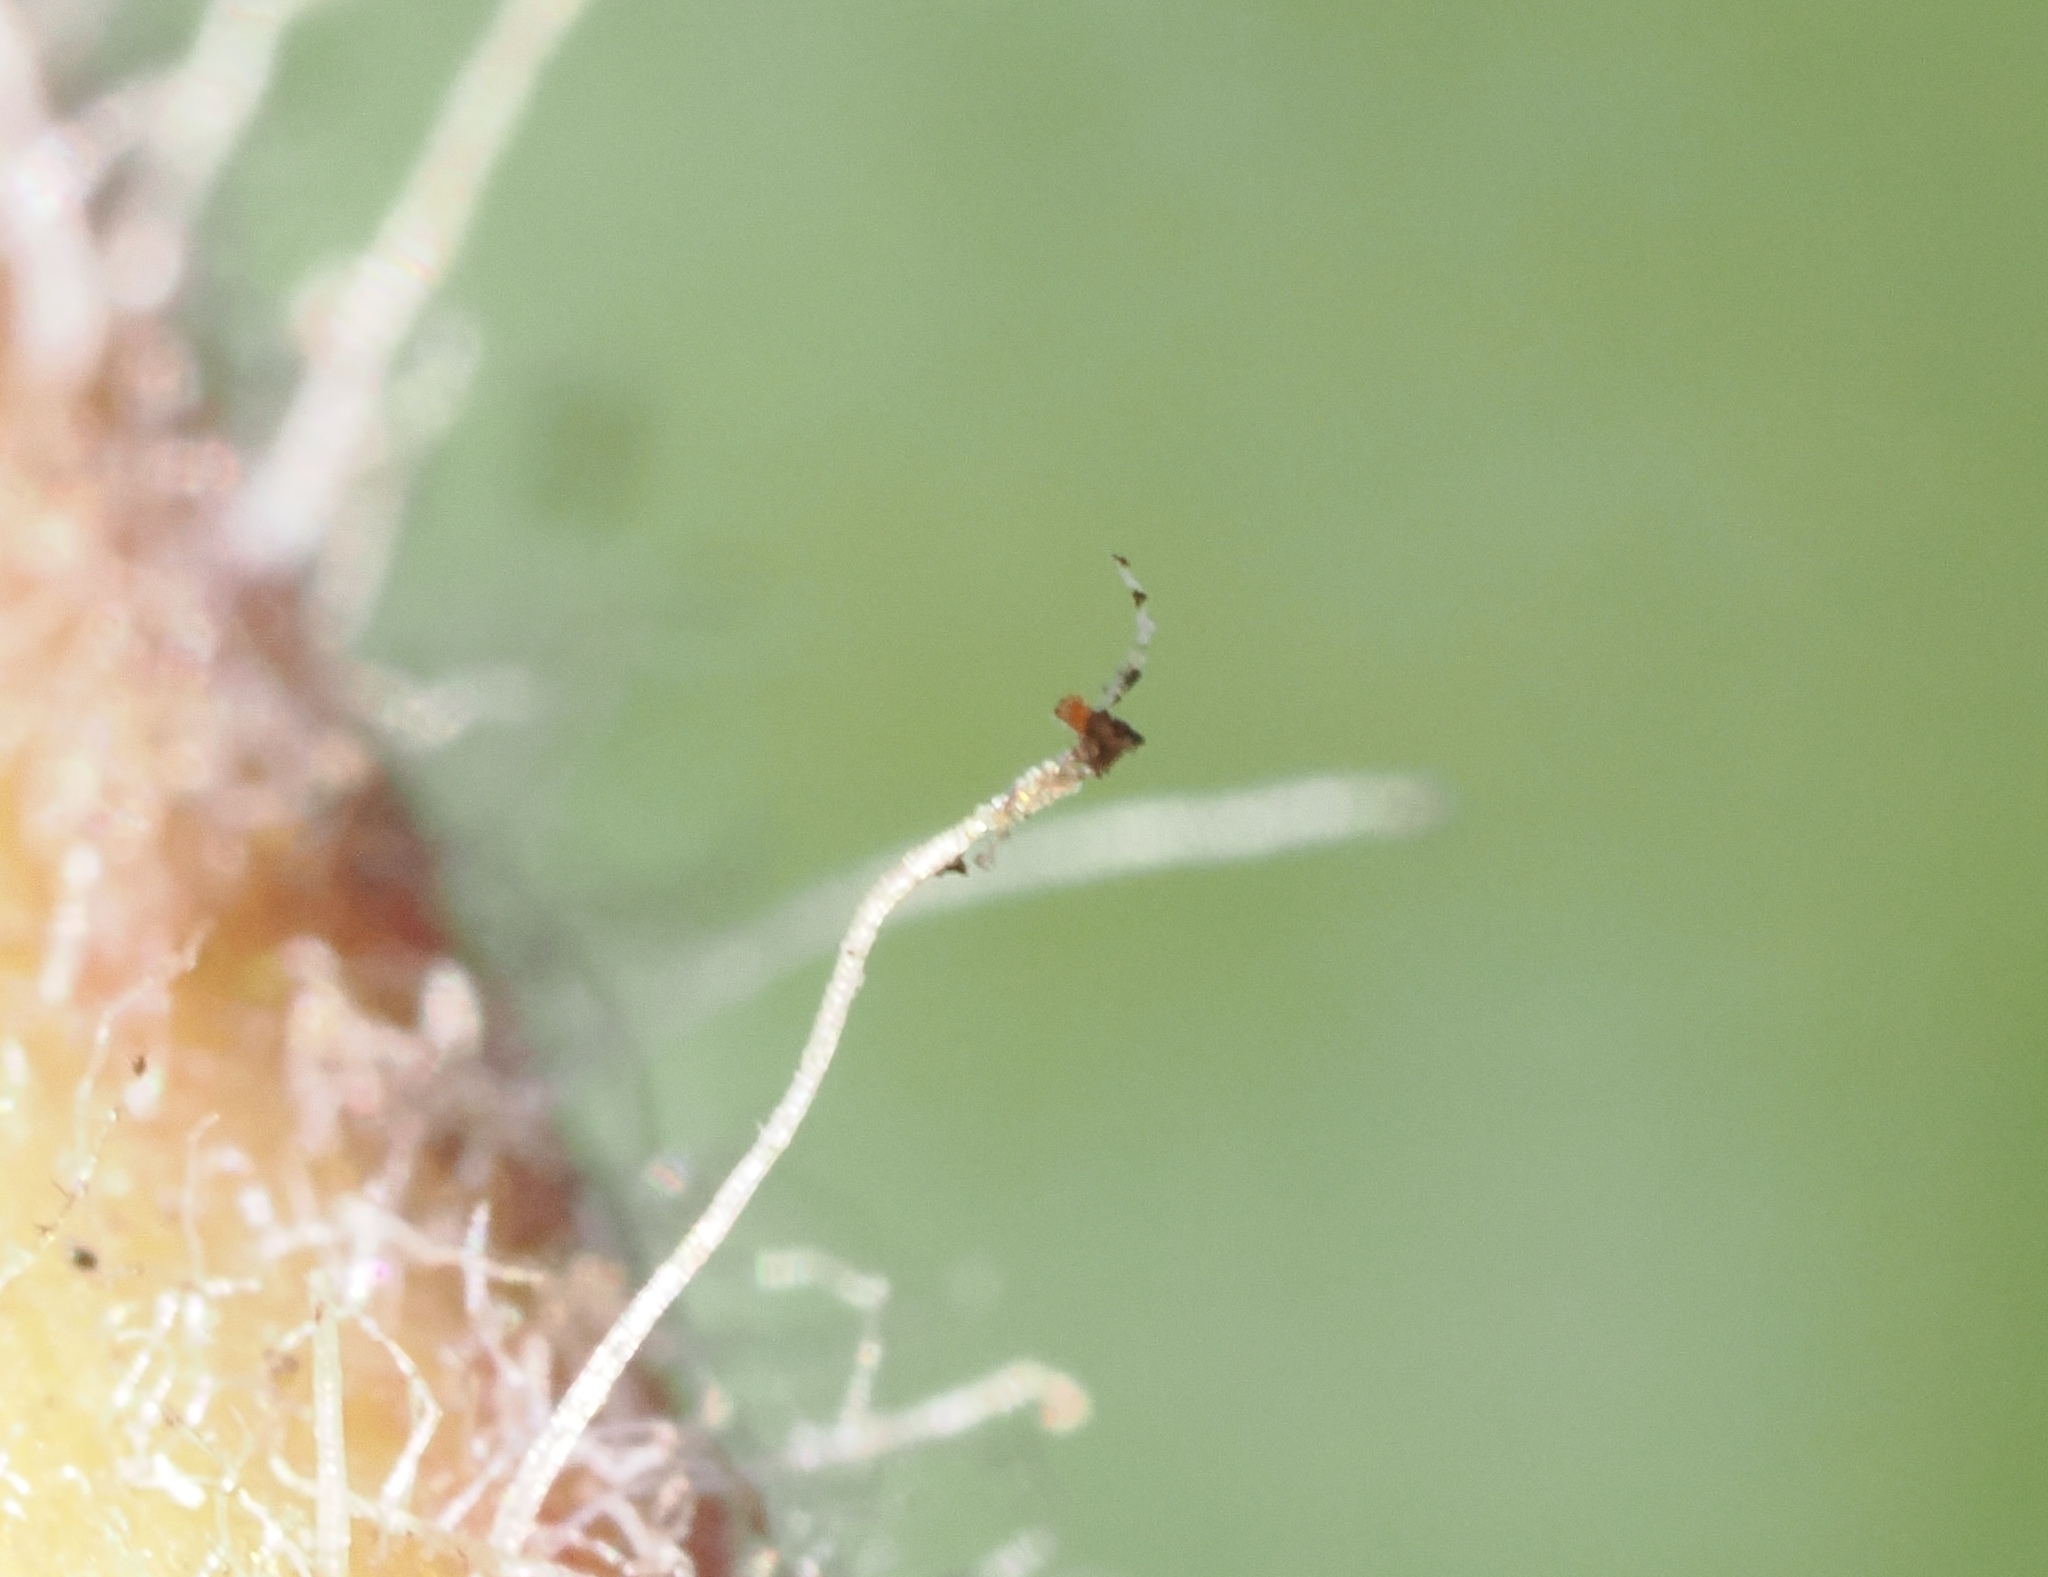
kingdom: Plantae
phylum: Tracheophyta
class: Magnoliopsida
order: Ericales
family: Ericaceae
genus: Arctostaphylos
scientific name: Arctostaphylos tomentosa
